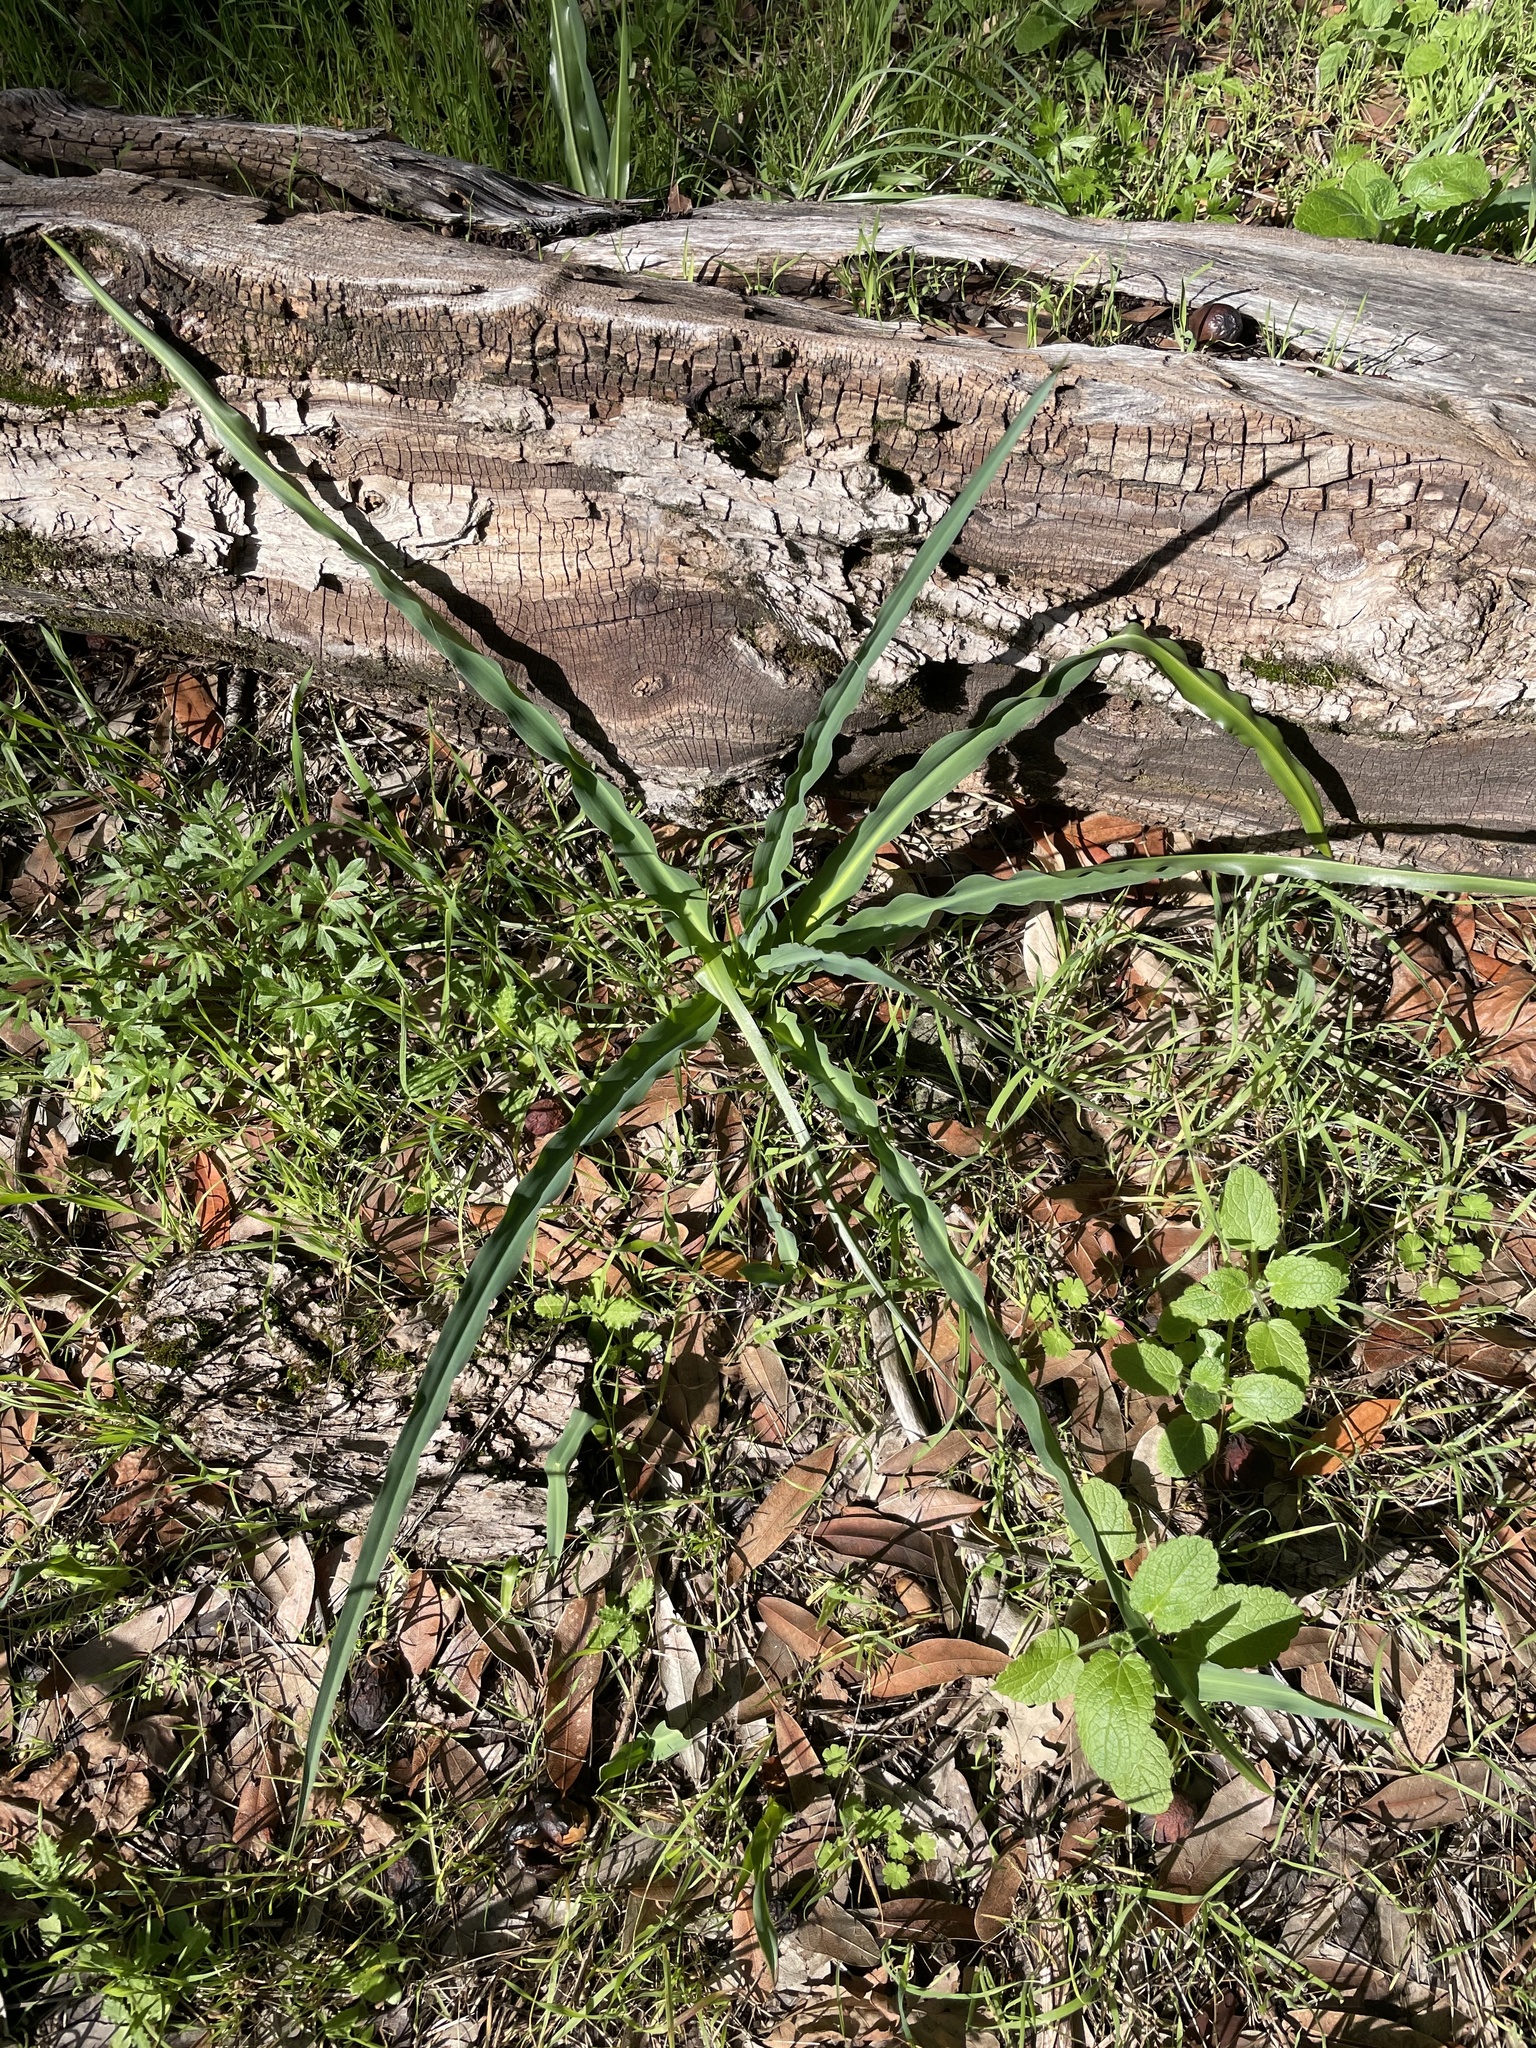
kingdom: Plantae
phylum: Tracheophyta
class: Liliopsida
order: Asparagales
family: Asparagaceae
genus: Chlorogalum
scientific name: Chlorogalum pomeridianum
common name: Amole
